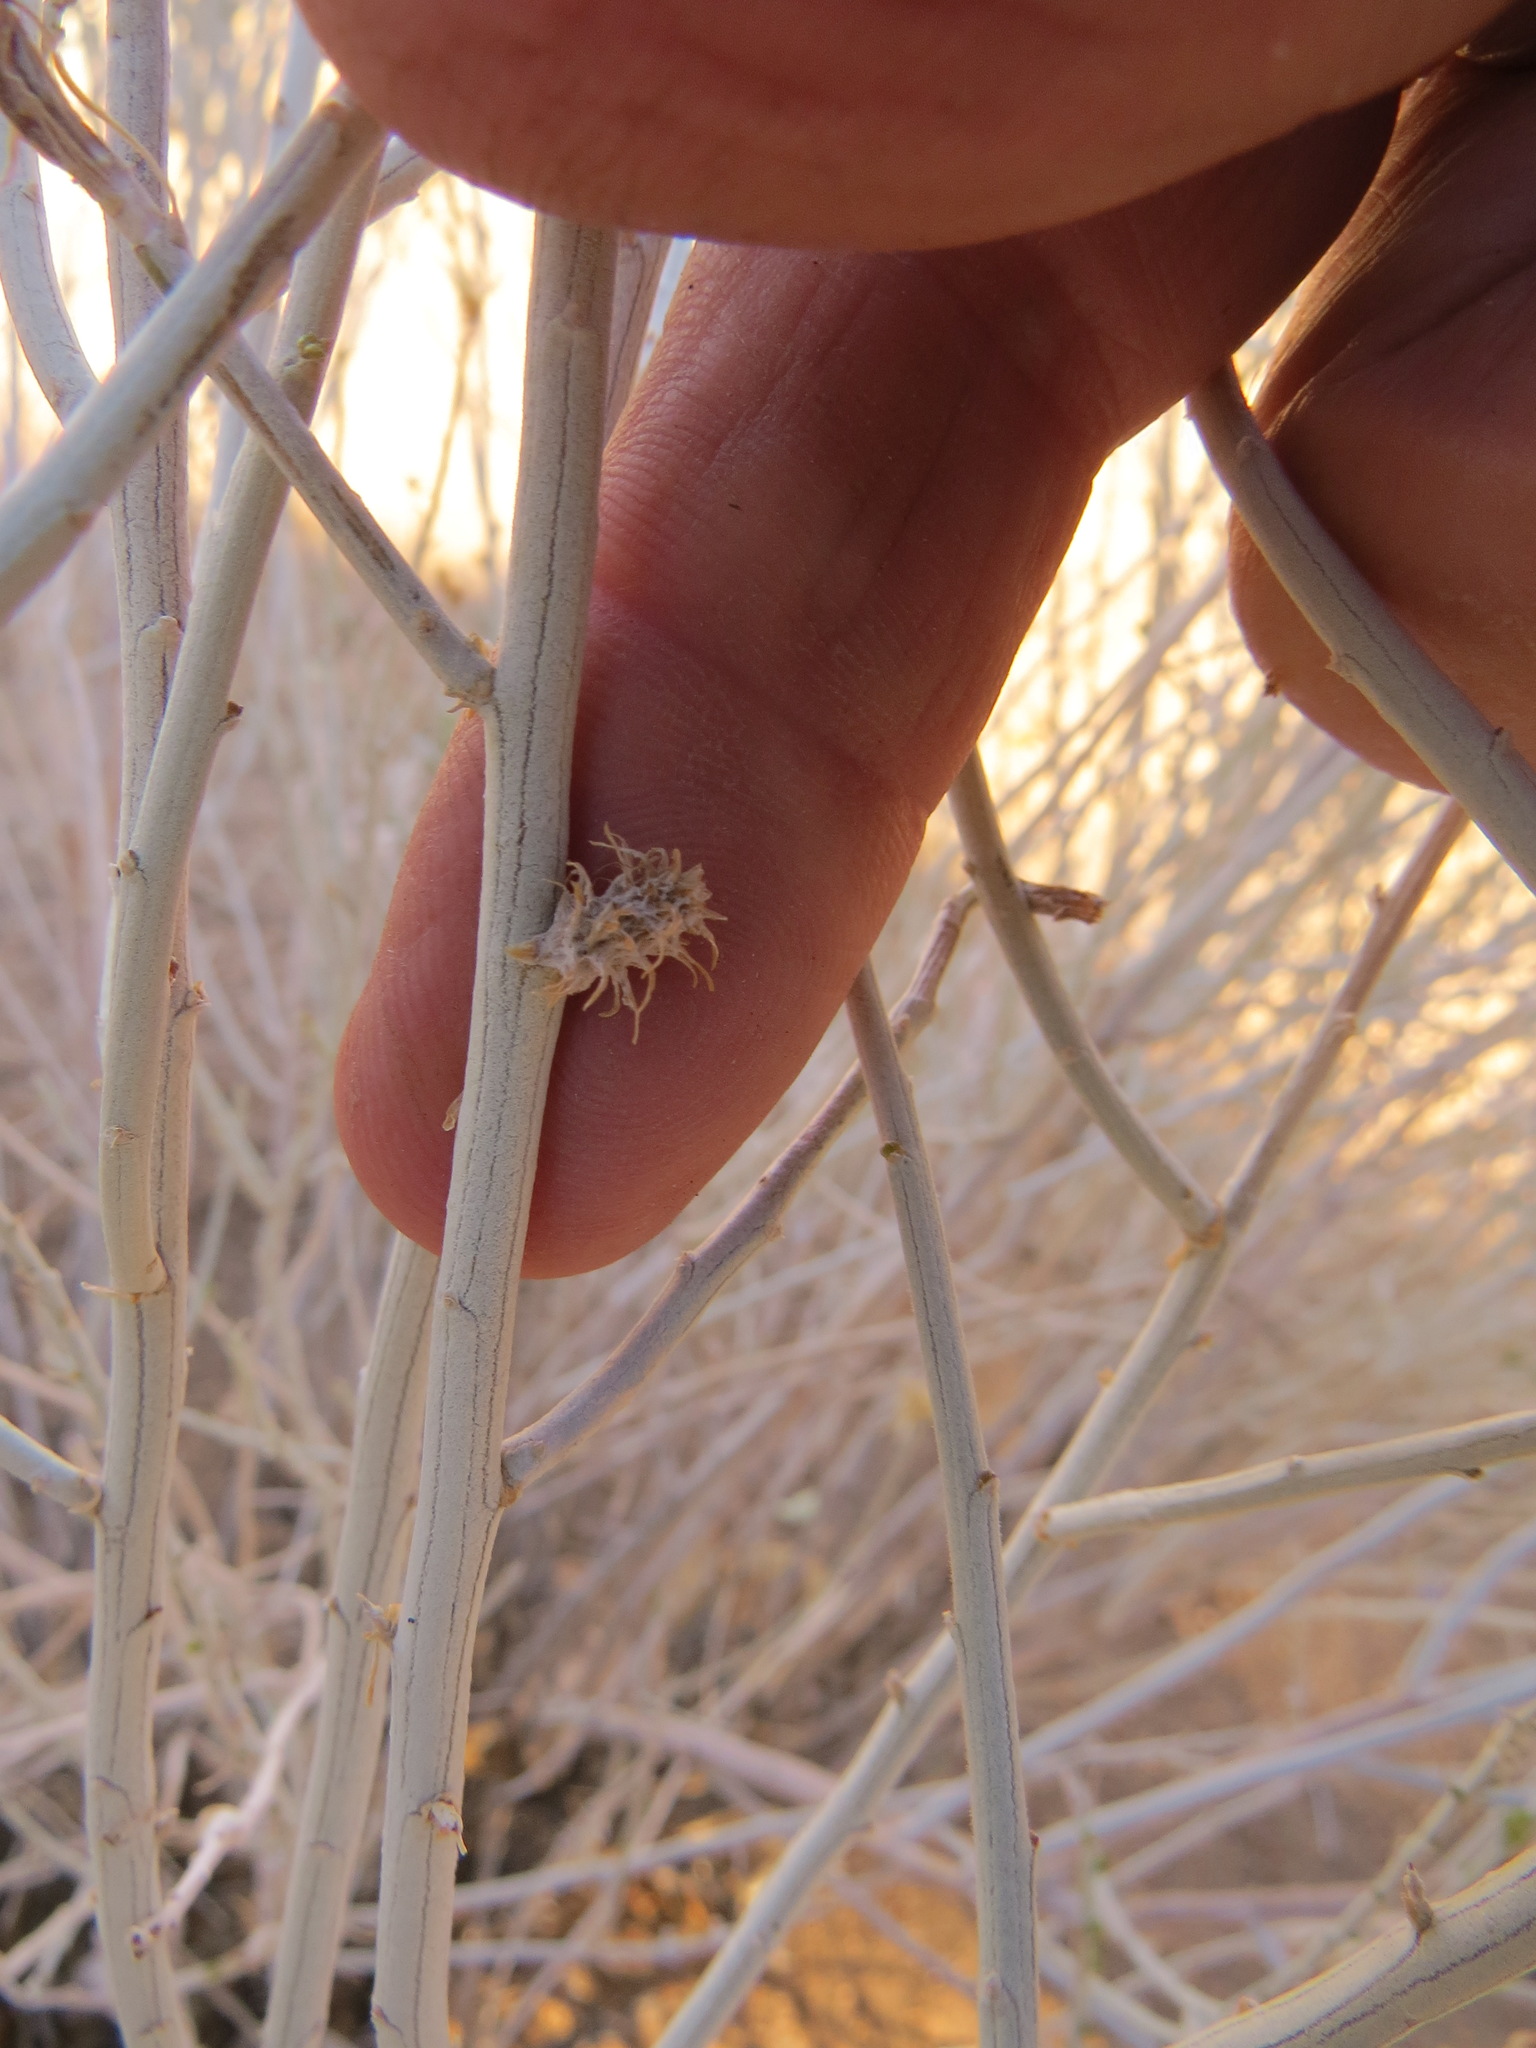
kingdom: Animalia
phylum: Arthropoda
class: Insecta
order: Diptera
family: Cecidomyiidae
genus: Rhopalomyia
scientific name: Rhopalomyia utahensis
